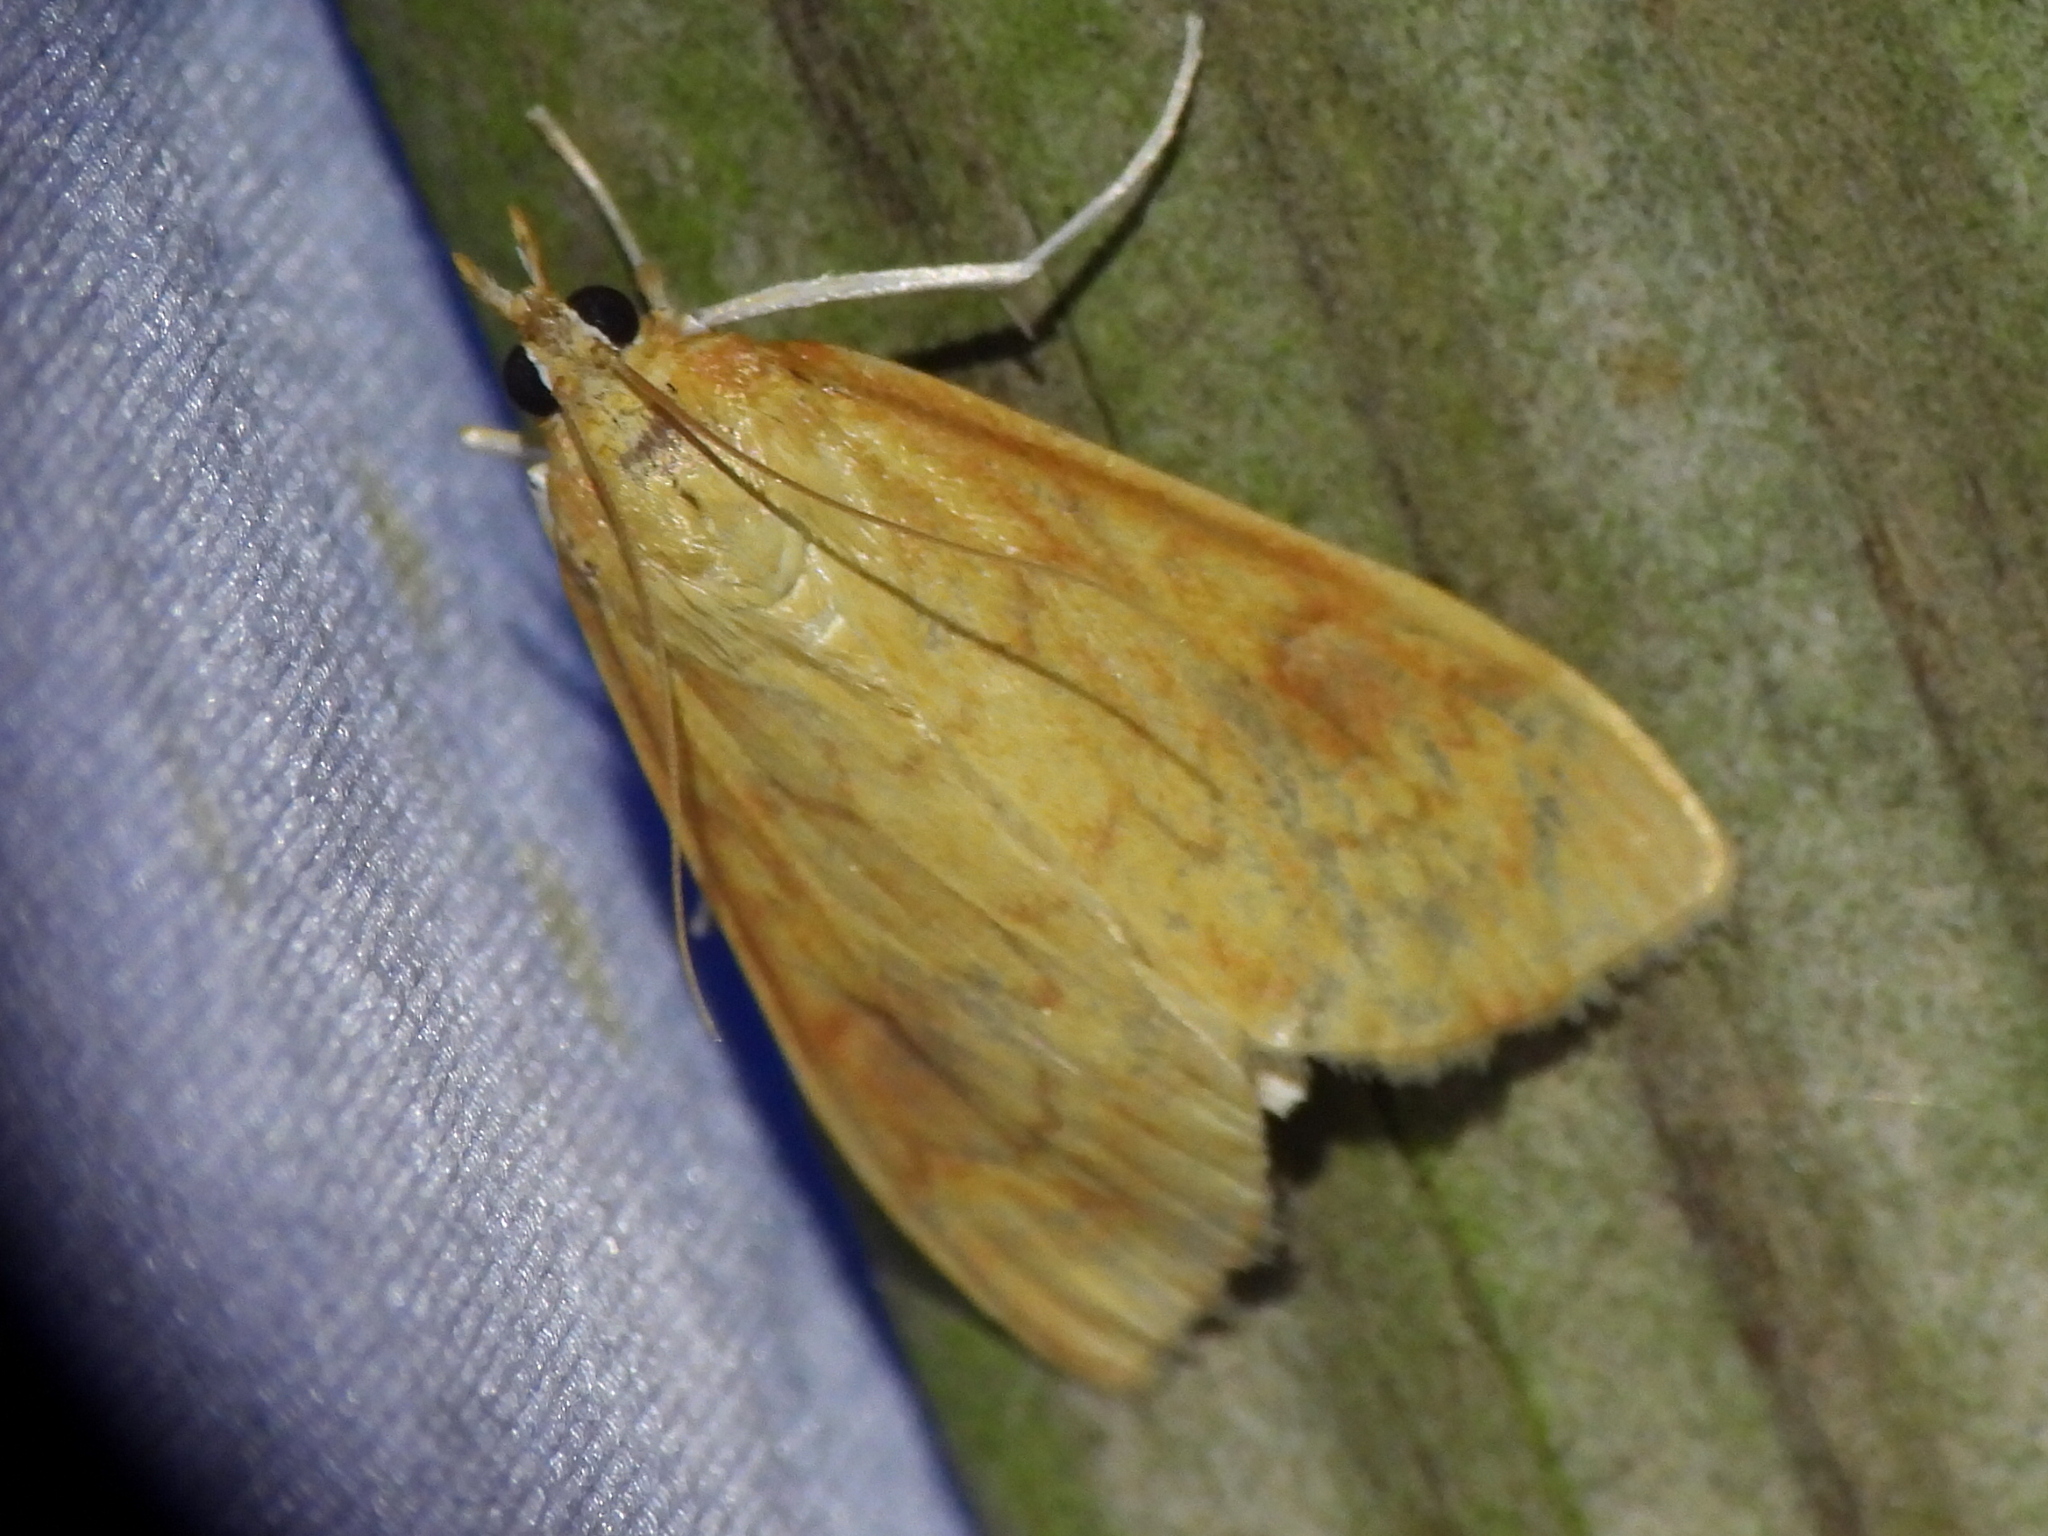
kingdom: Animalia
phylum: Arthropoda
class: Insecta
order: Lepidoptera
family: Crambidae
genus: Ostrinia
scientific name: Ostrinia penitalis
